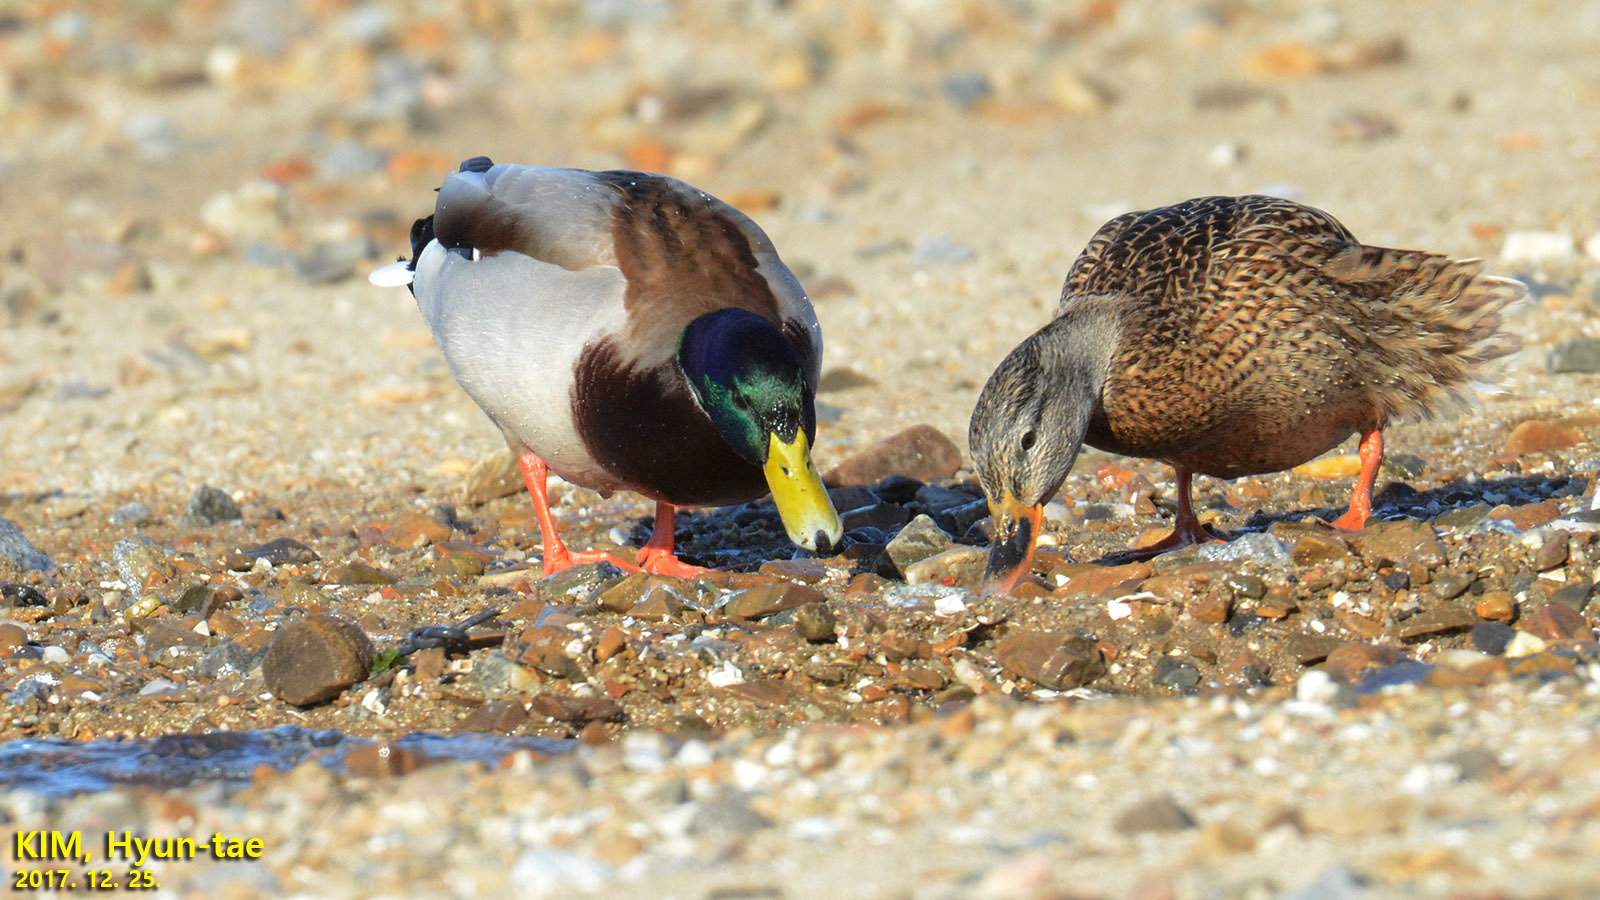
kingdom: Animalia
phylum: Chordata
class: Aves
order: Anseriformes
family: Anatidae
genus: Anas
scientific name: Anas platyrhynchos
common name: Mallard
